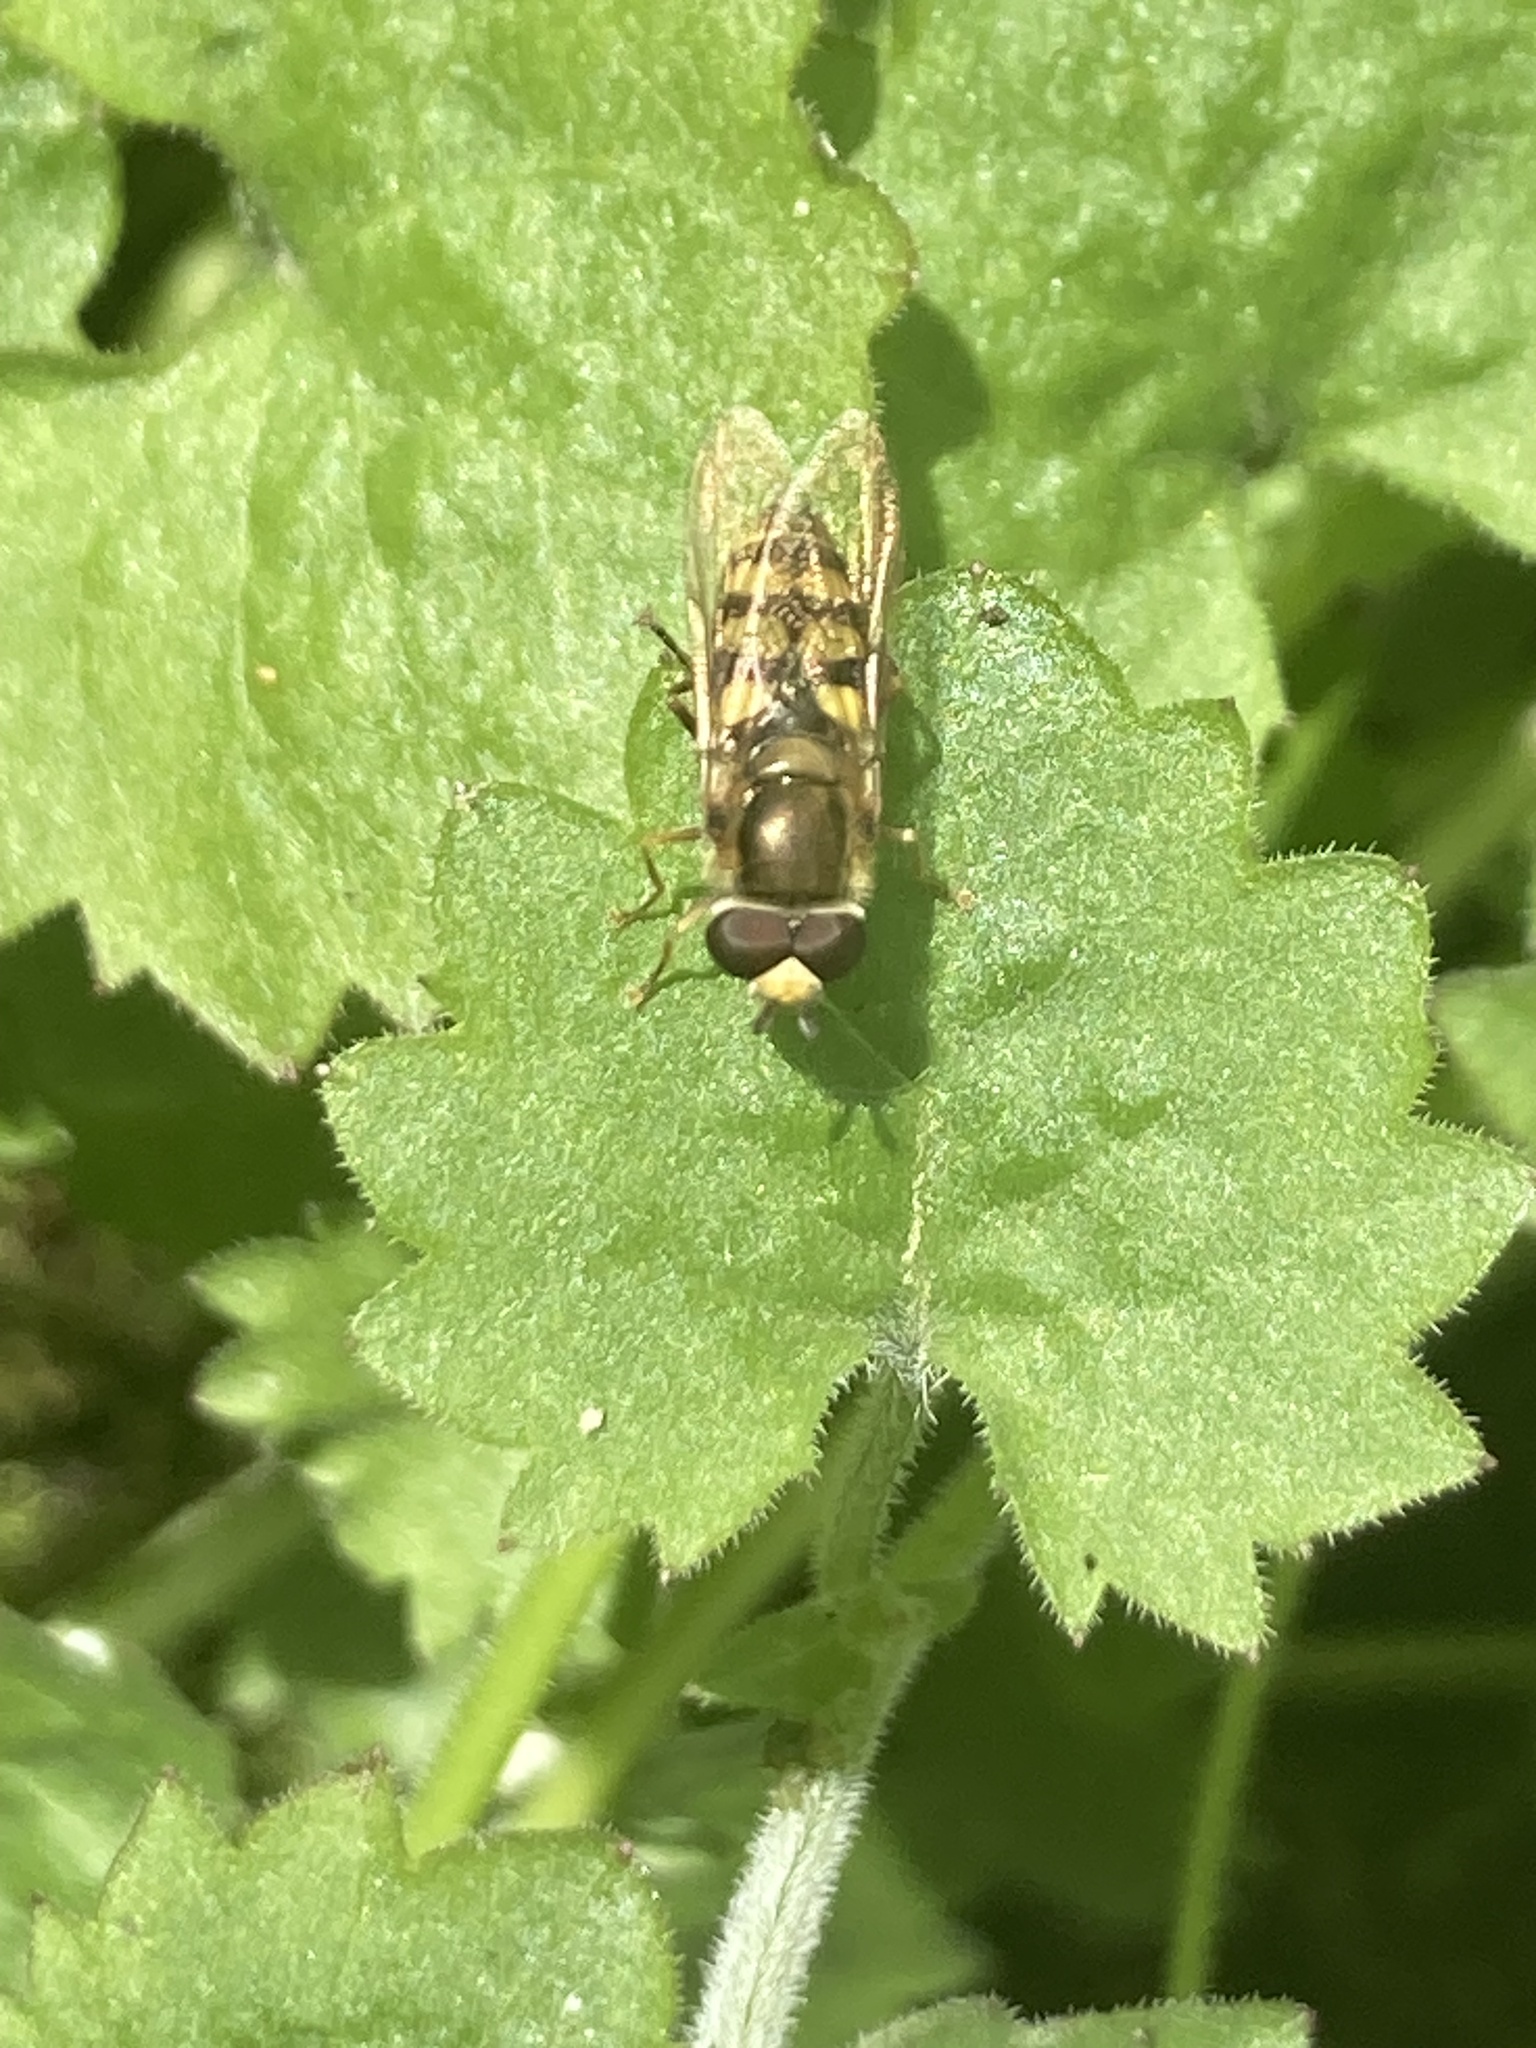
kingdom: Animalia
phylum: Arthropoda
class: Insecta
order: Diptera
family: Syrphidae
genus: Eupeodes
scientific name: Eupeodes corollae
